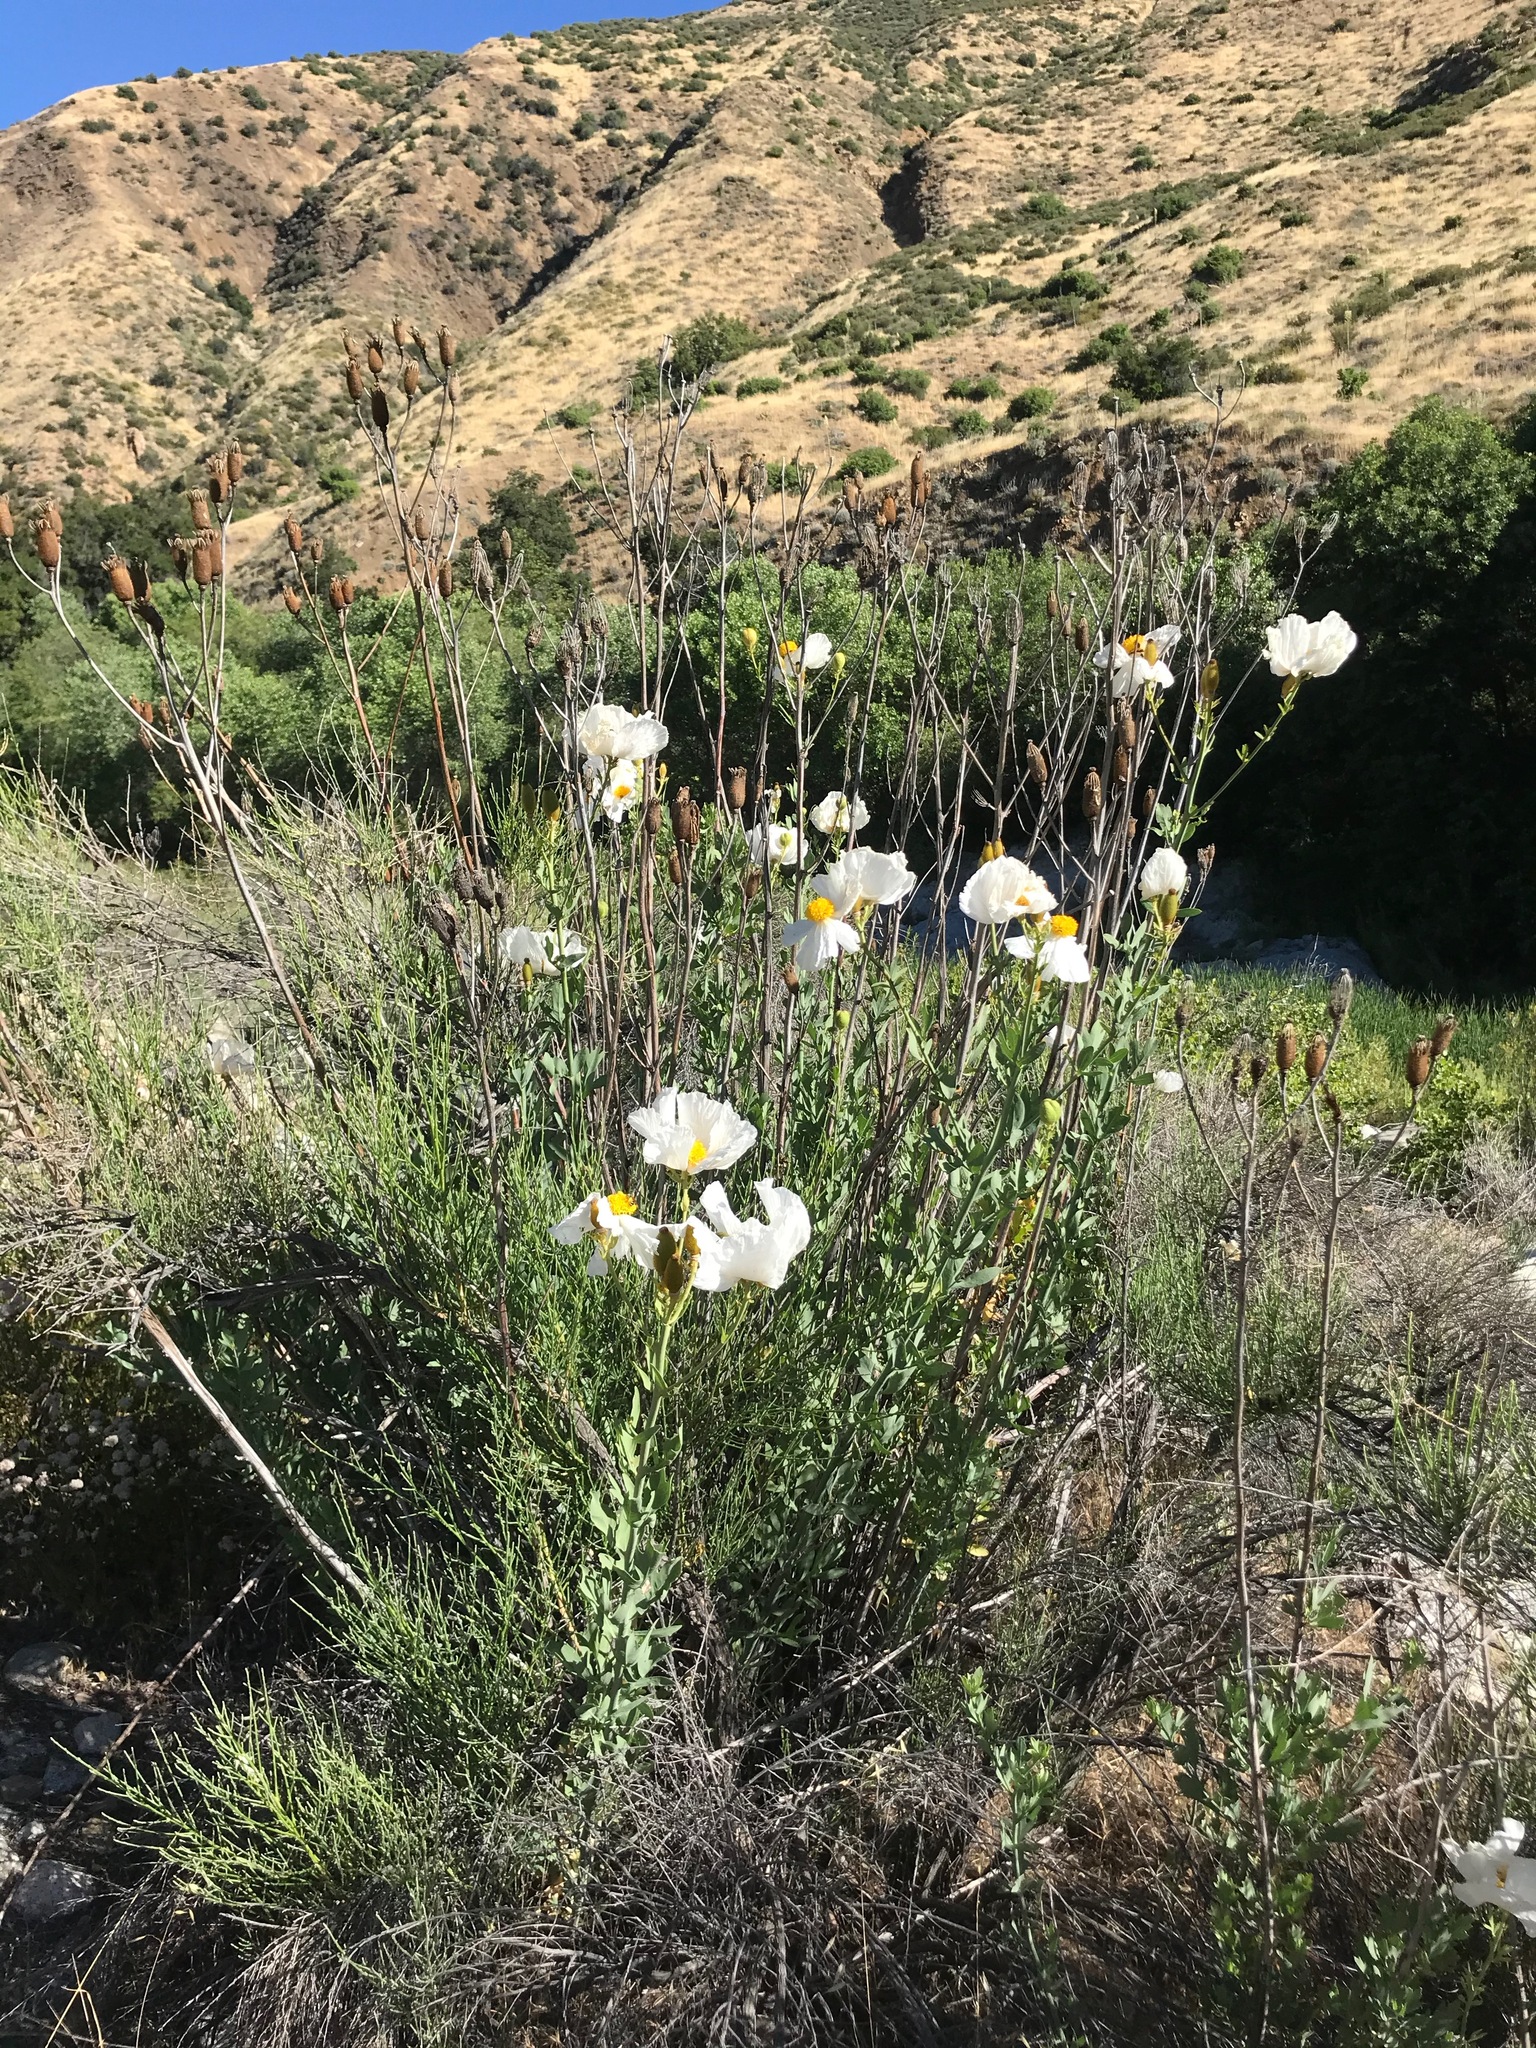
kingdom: Plantae
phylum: Tracheophyta
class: Magnoliopsida
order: Ranunculales
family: Papaveraceae
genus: Romneya
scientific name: Romneya trichocalyx
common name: Hairy matilija-poppy
